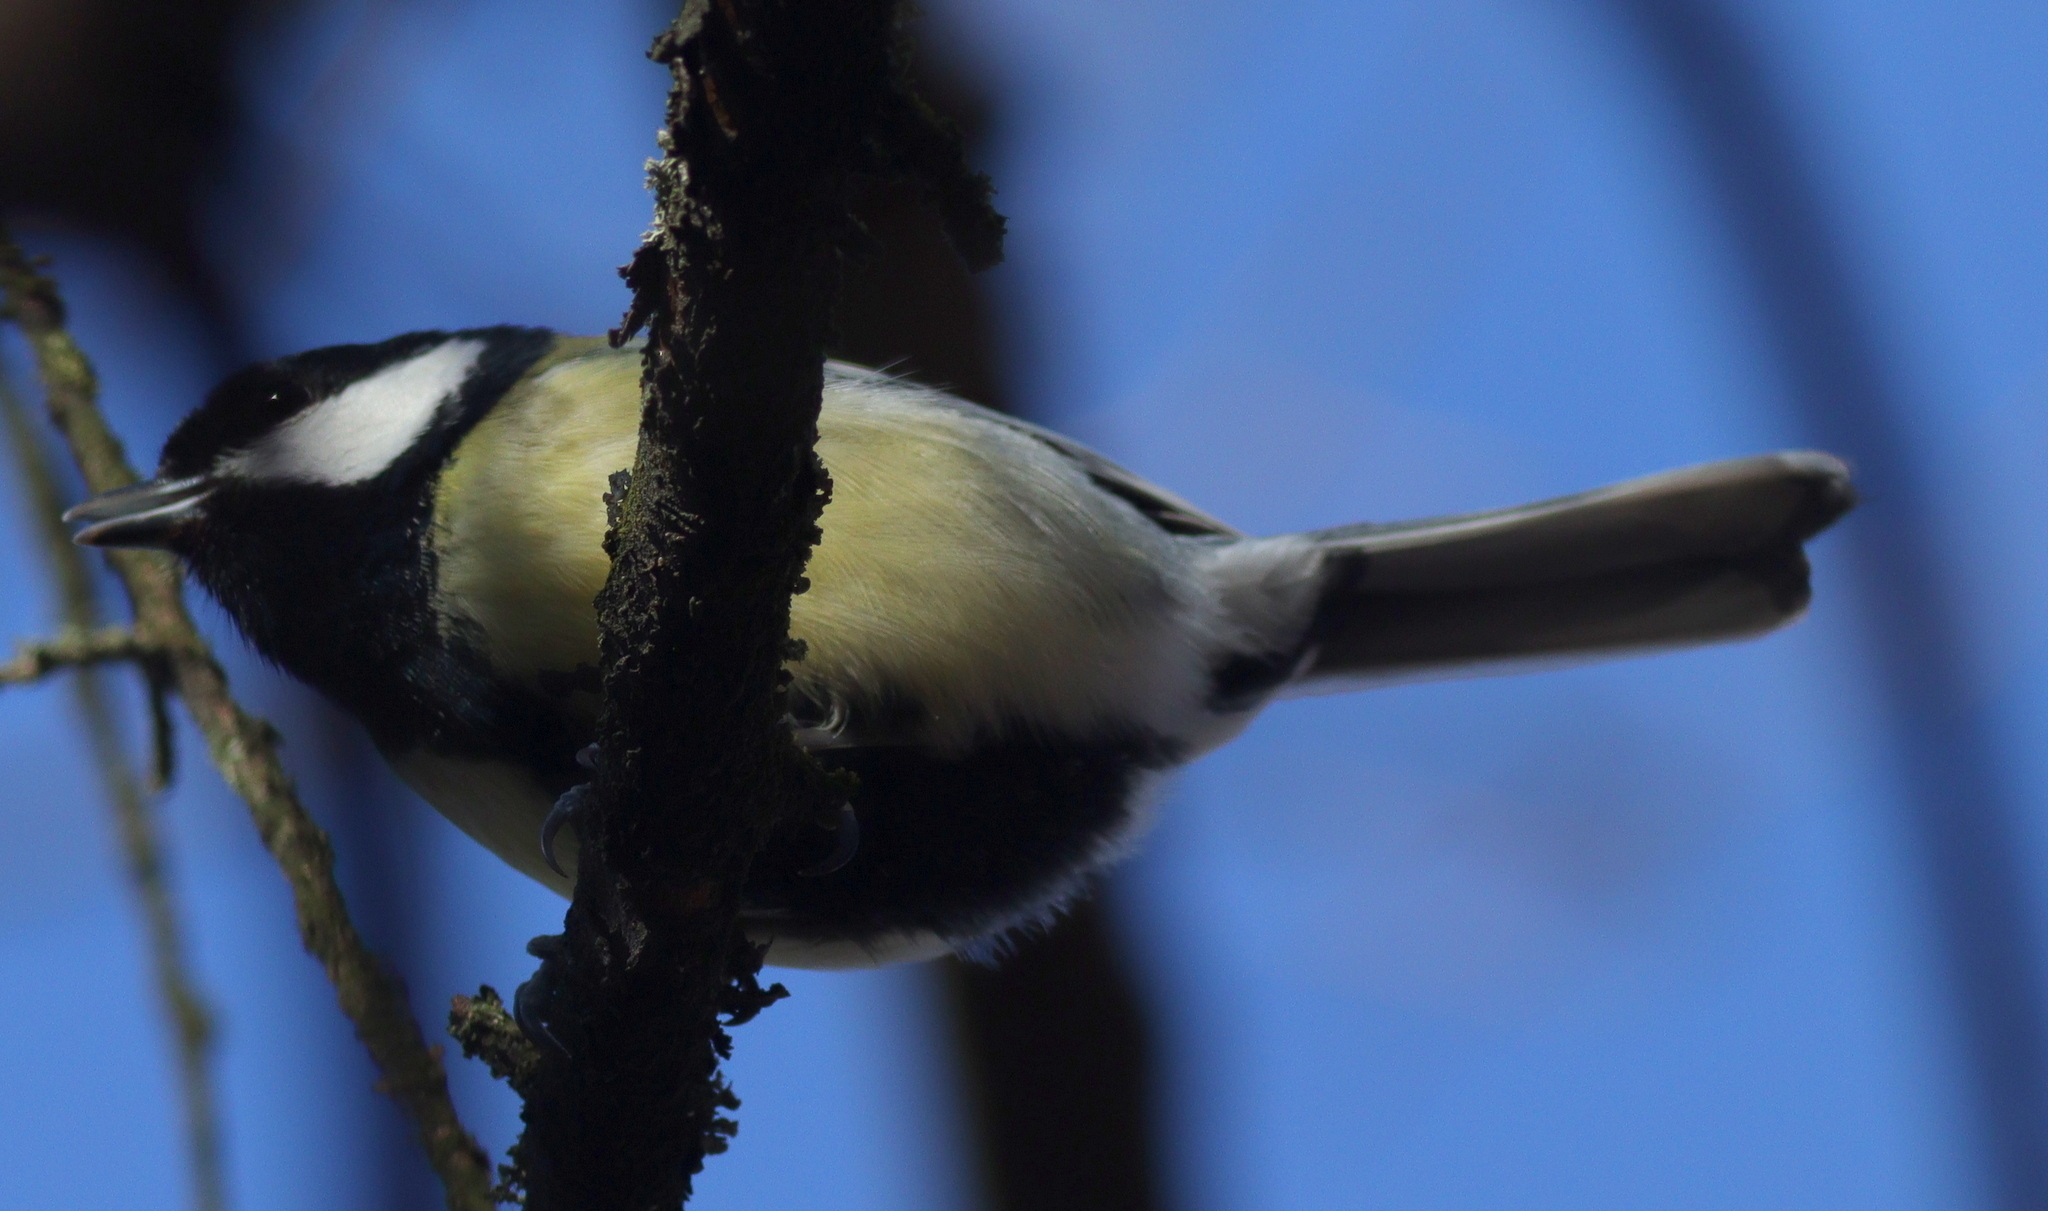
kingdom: Animalia
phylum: Chordata
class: Aves
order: Passeriformes
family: Paridae
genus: Parus
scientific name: Parus major
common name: Great tit
